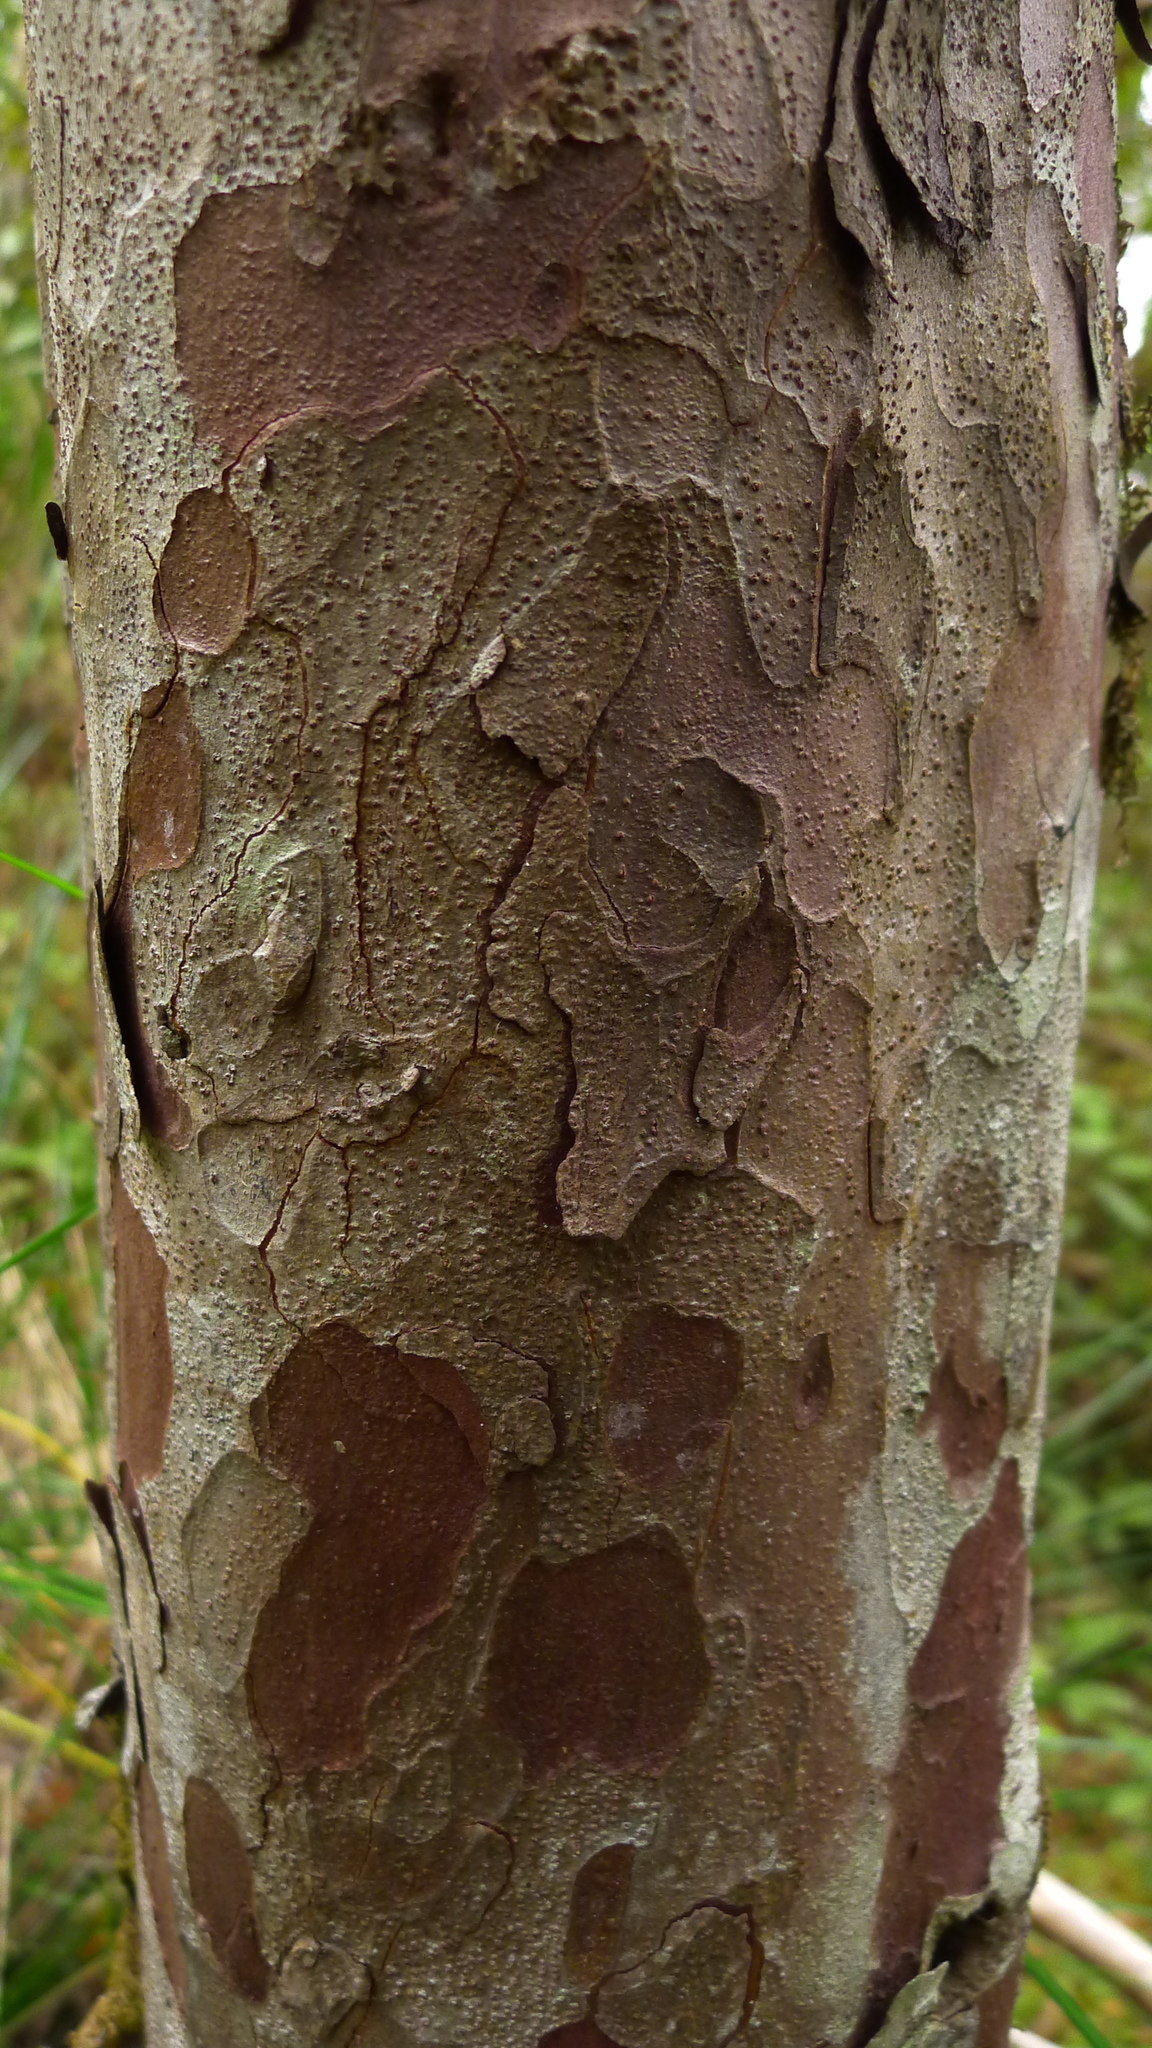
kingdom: Plantae
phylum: Tracheophyta
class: Pinopsida
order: Pinales
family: Podocarpaceae
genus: Lepidothamnus
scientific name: Lepidothamnus intermedius
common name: Yellow silver pine
